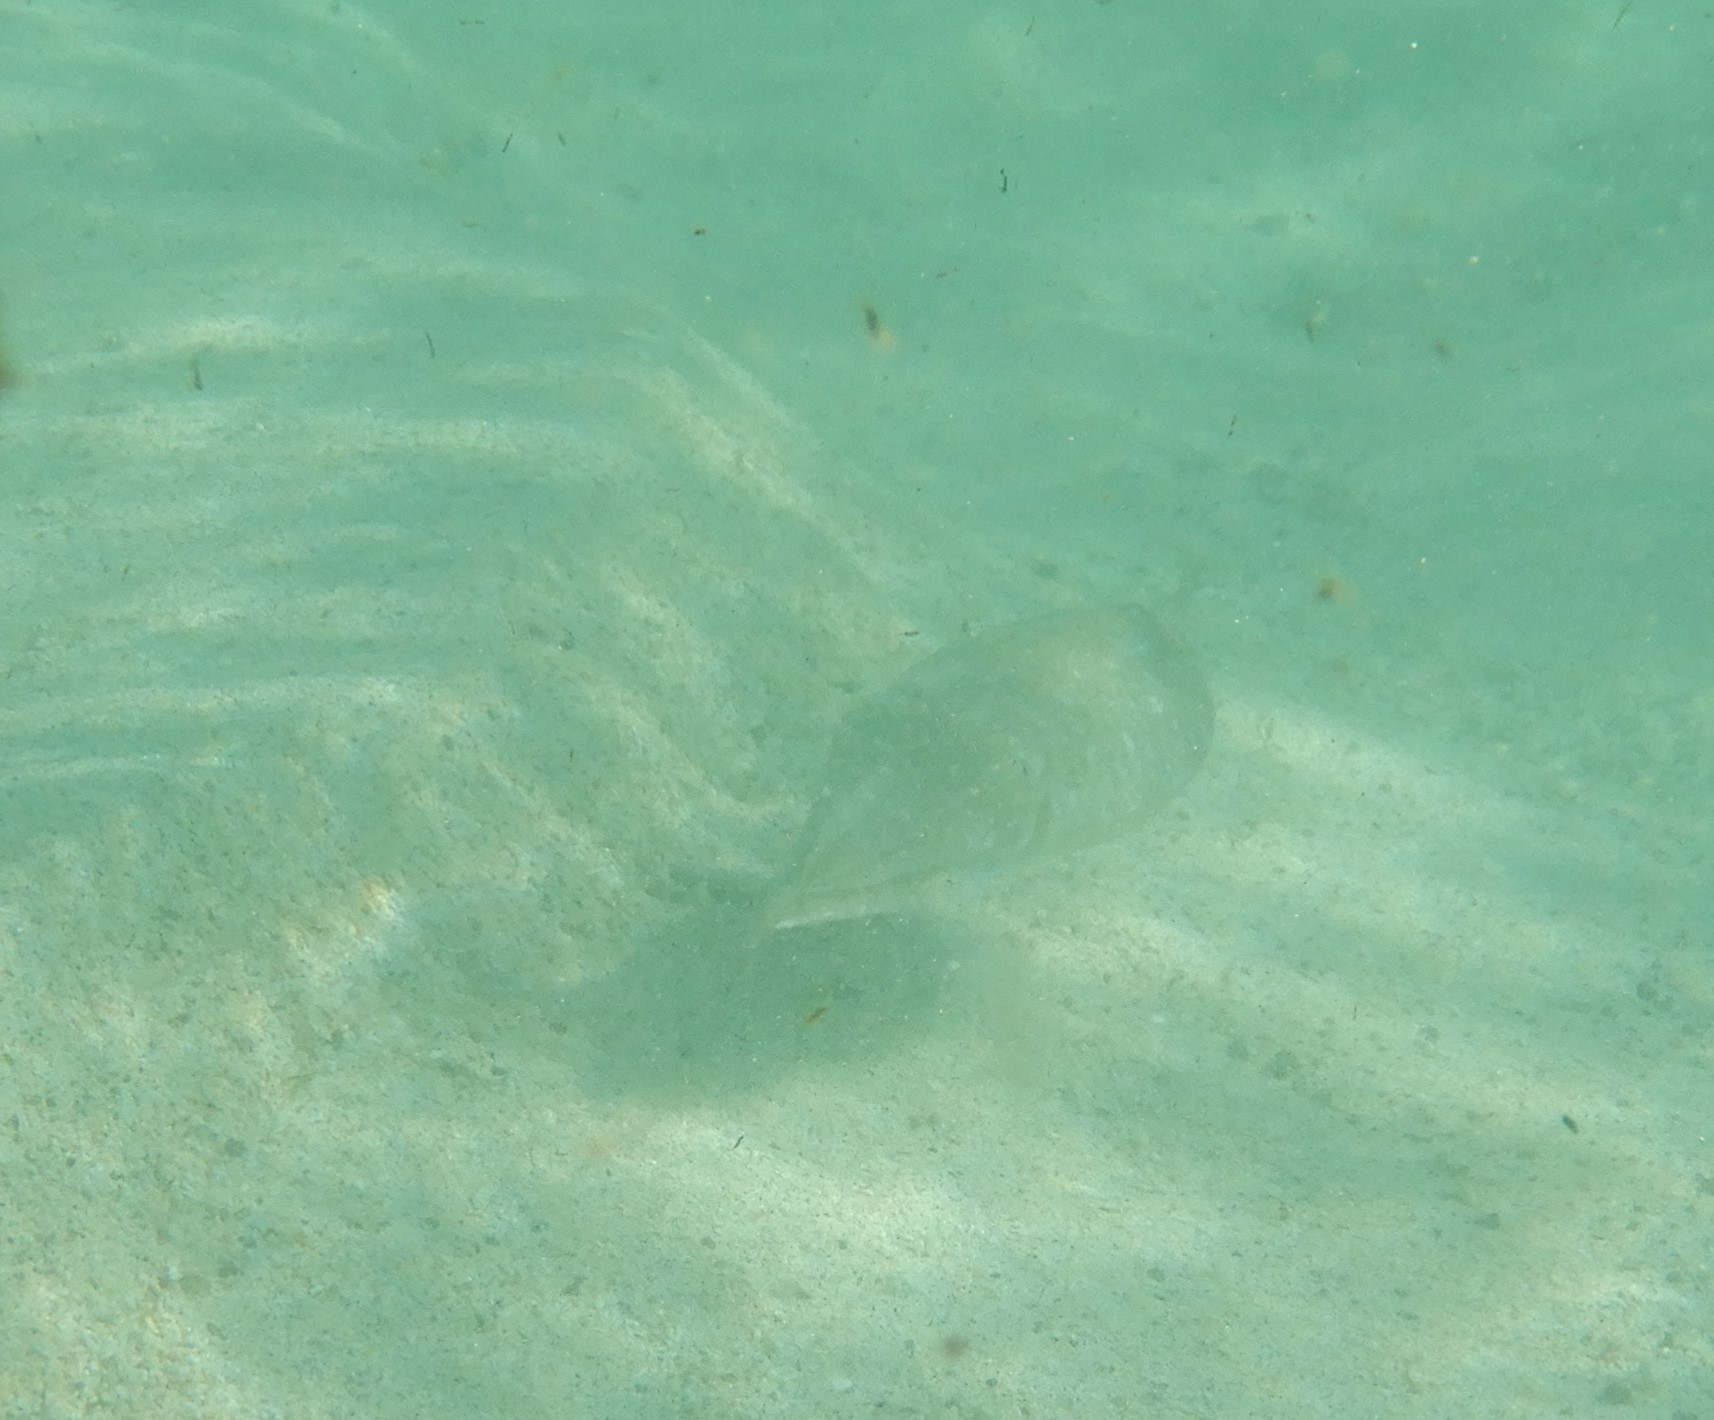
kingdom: Animalia
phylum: Mollusca
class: Cephalopoda
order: Sepiida
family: Sepiidae
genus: Sepia
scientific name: Sepia officinalis
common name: Common cuttlefish
